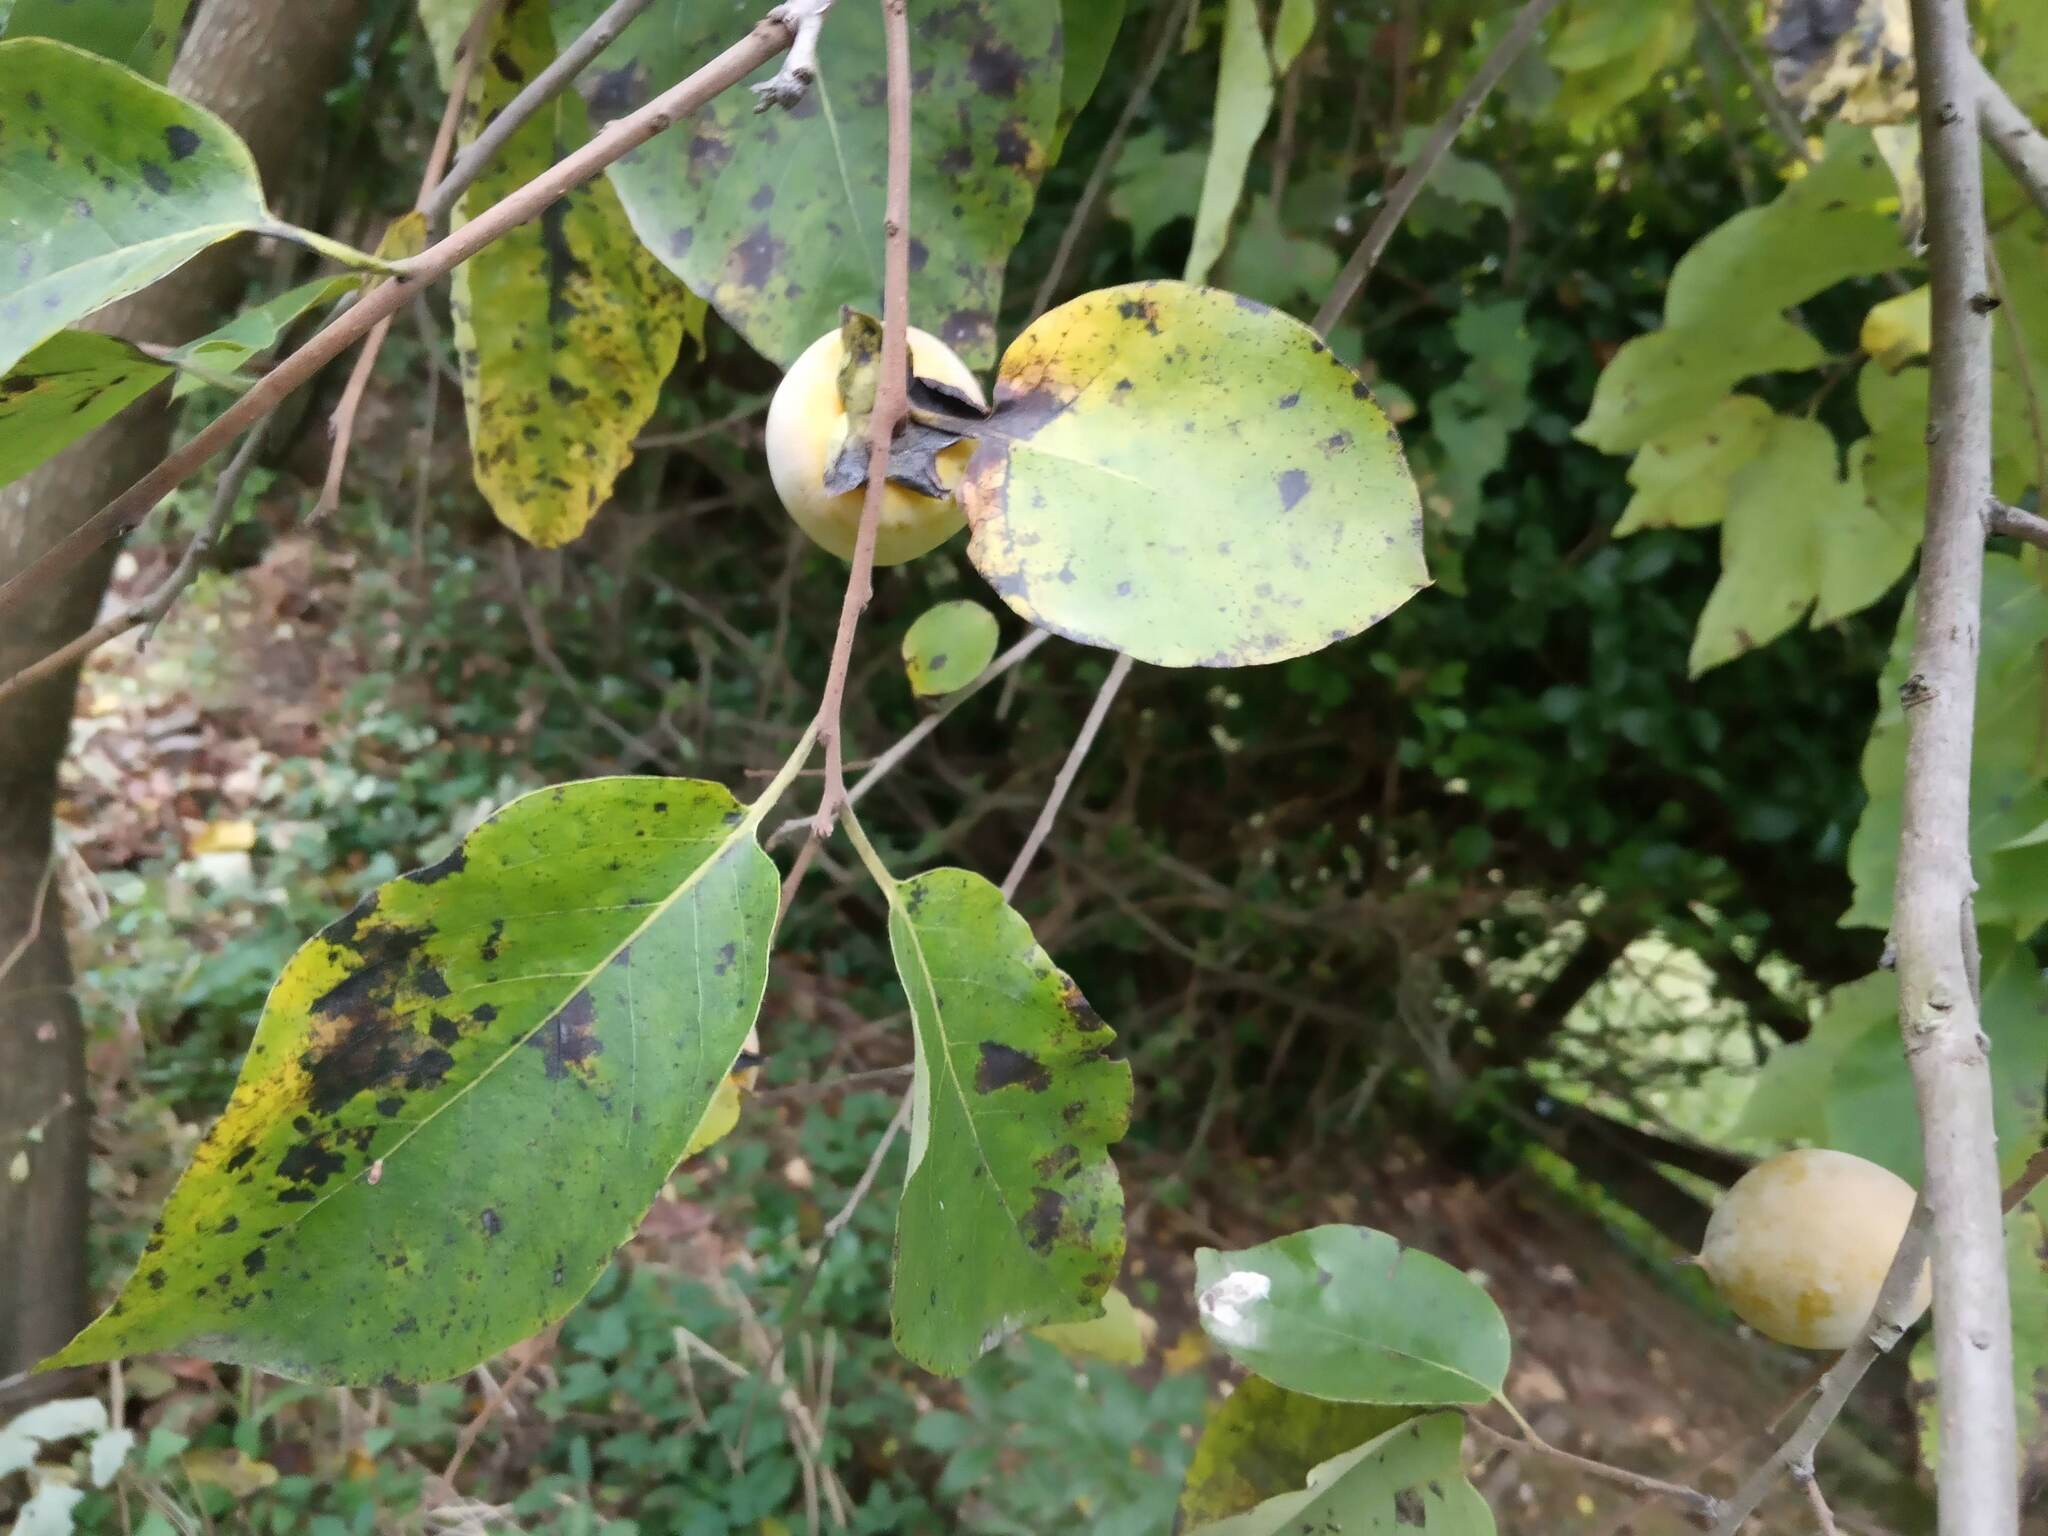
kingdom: Plantae
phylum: Tracheophyta
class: Magnoliopsida
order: Ericales
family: Ebenaceae
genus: Diospyros
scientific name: Diospyros virginiana
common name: Persimmon
